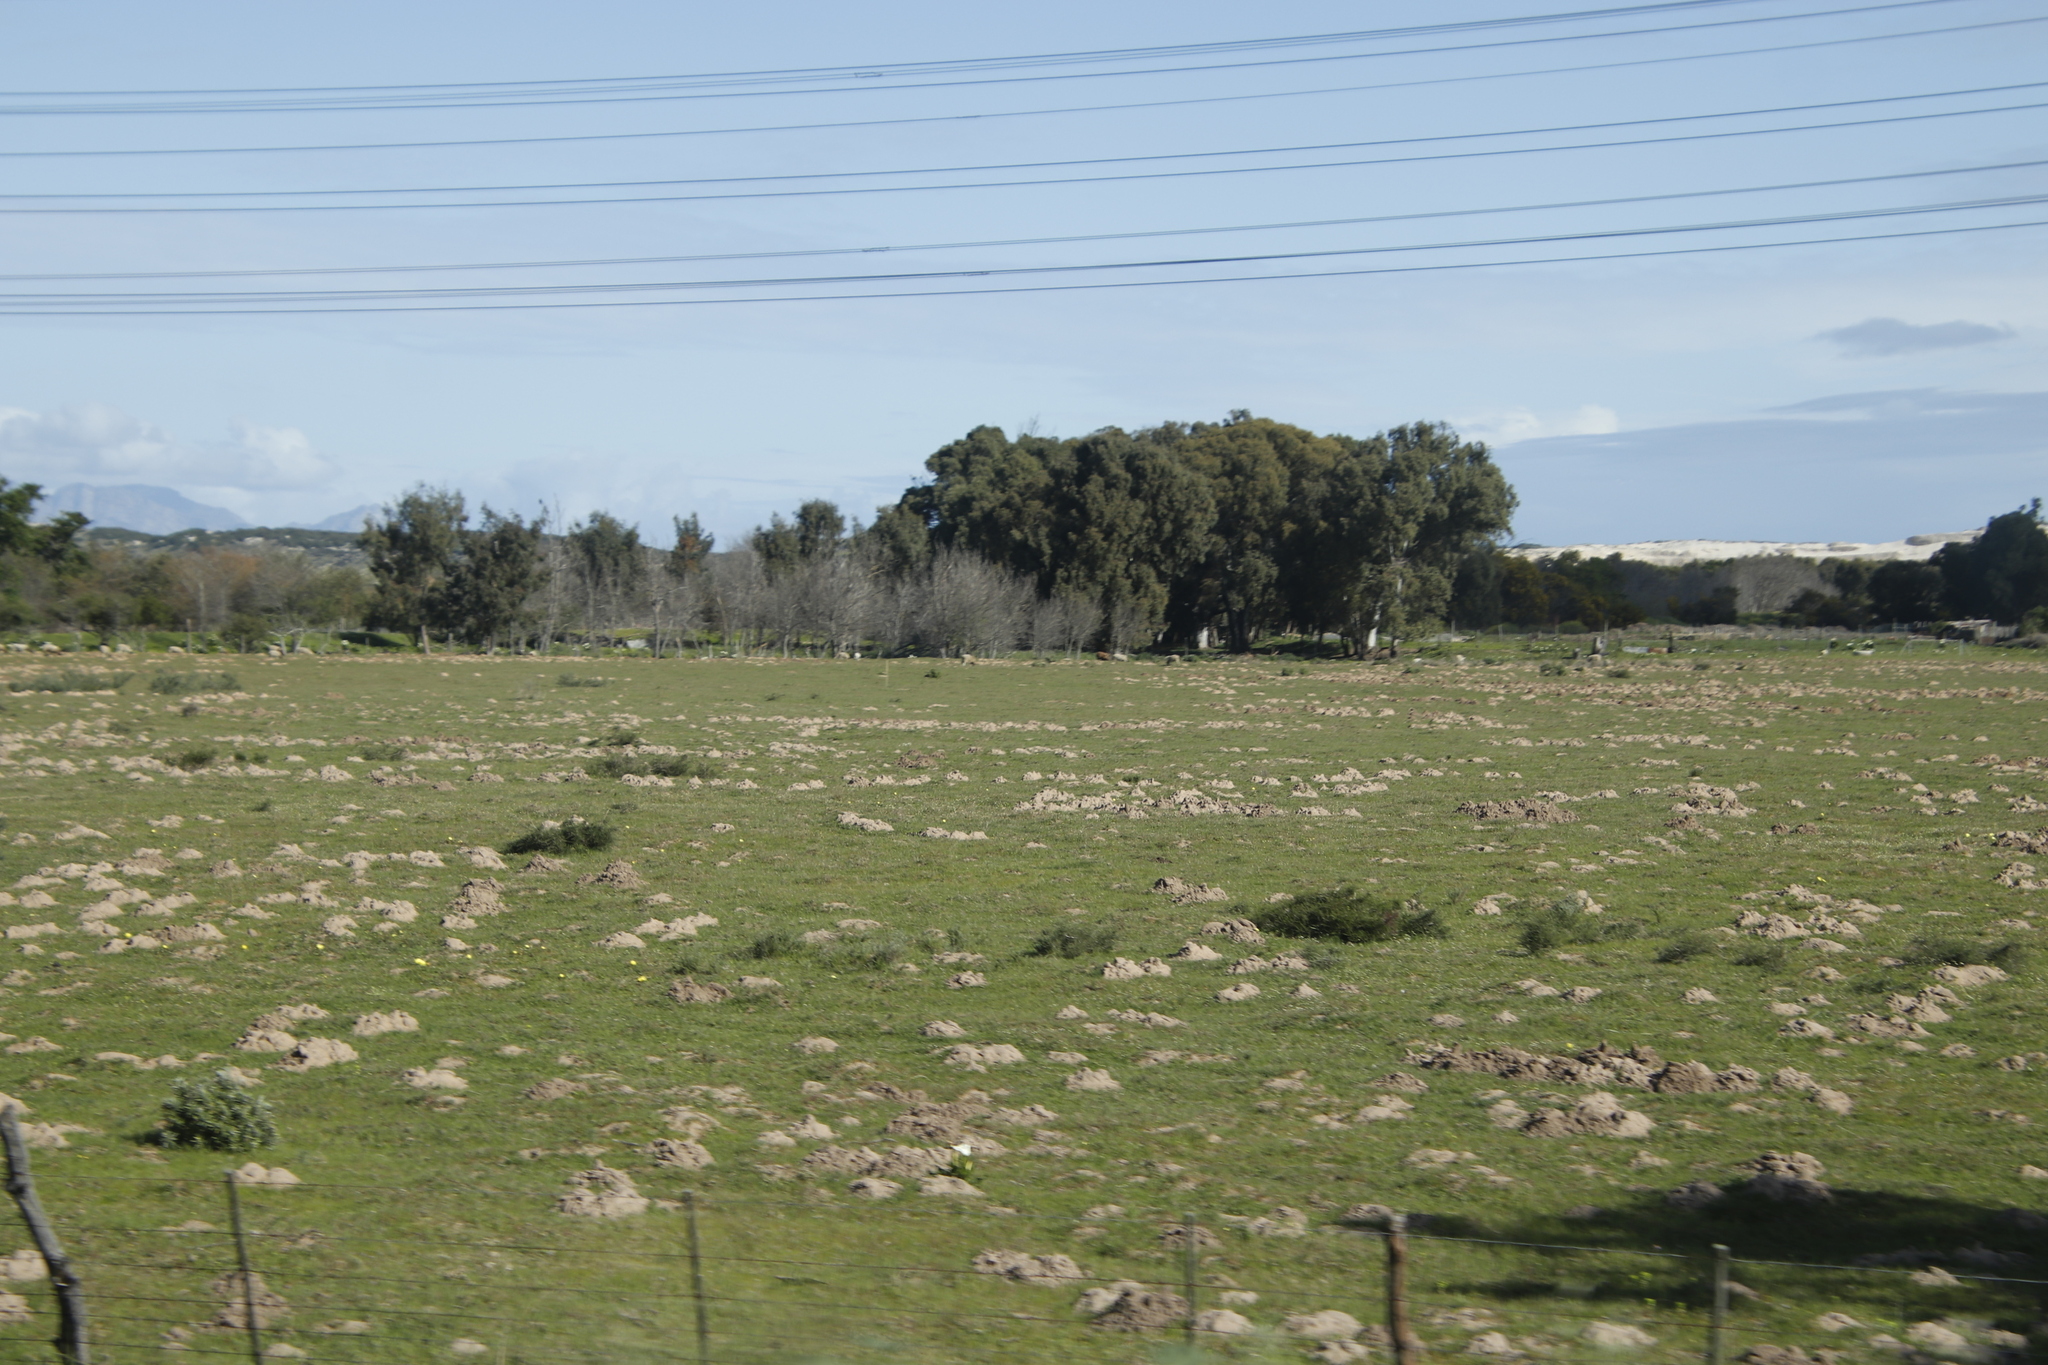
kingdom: Animalia
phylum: Chordata
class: Mammalia
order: Rodentia
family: Bathyergidae
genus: Bathyergus
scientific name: Bathyergus suillus
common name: Cape dune mole rat
